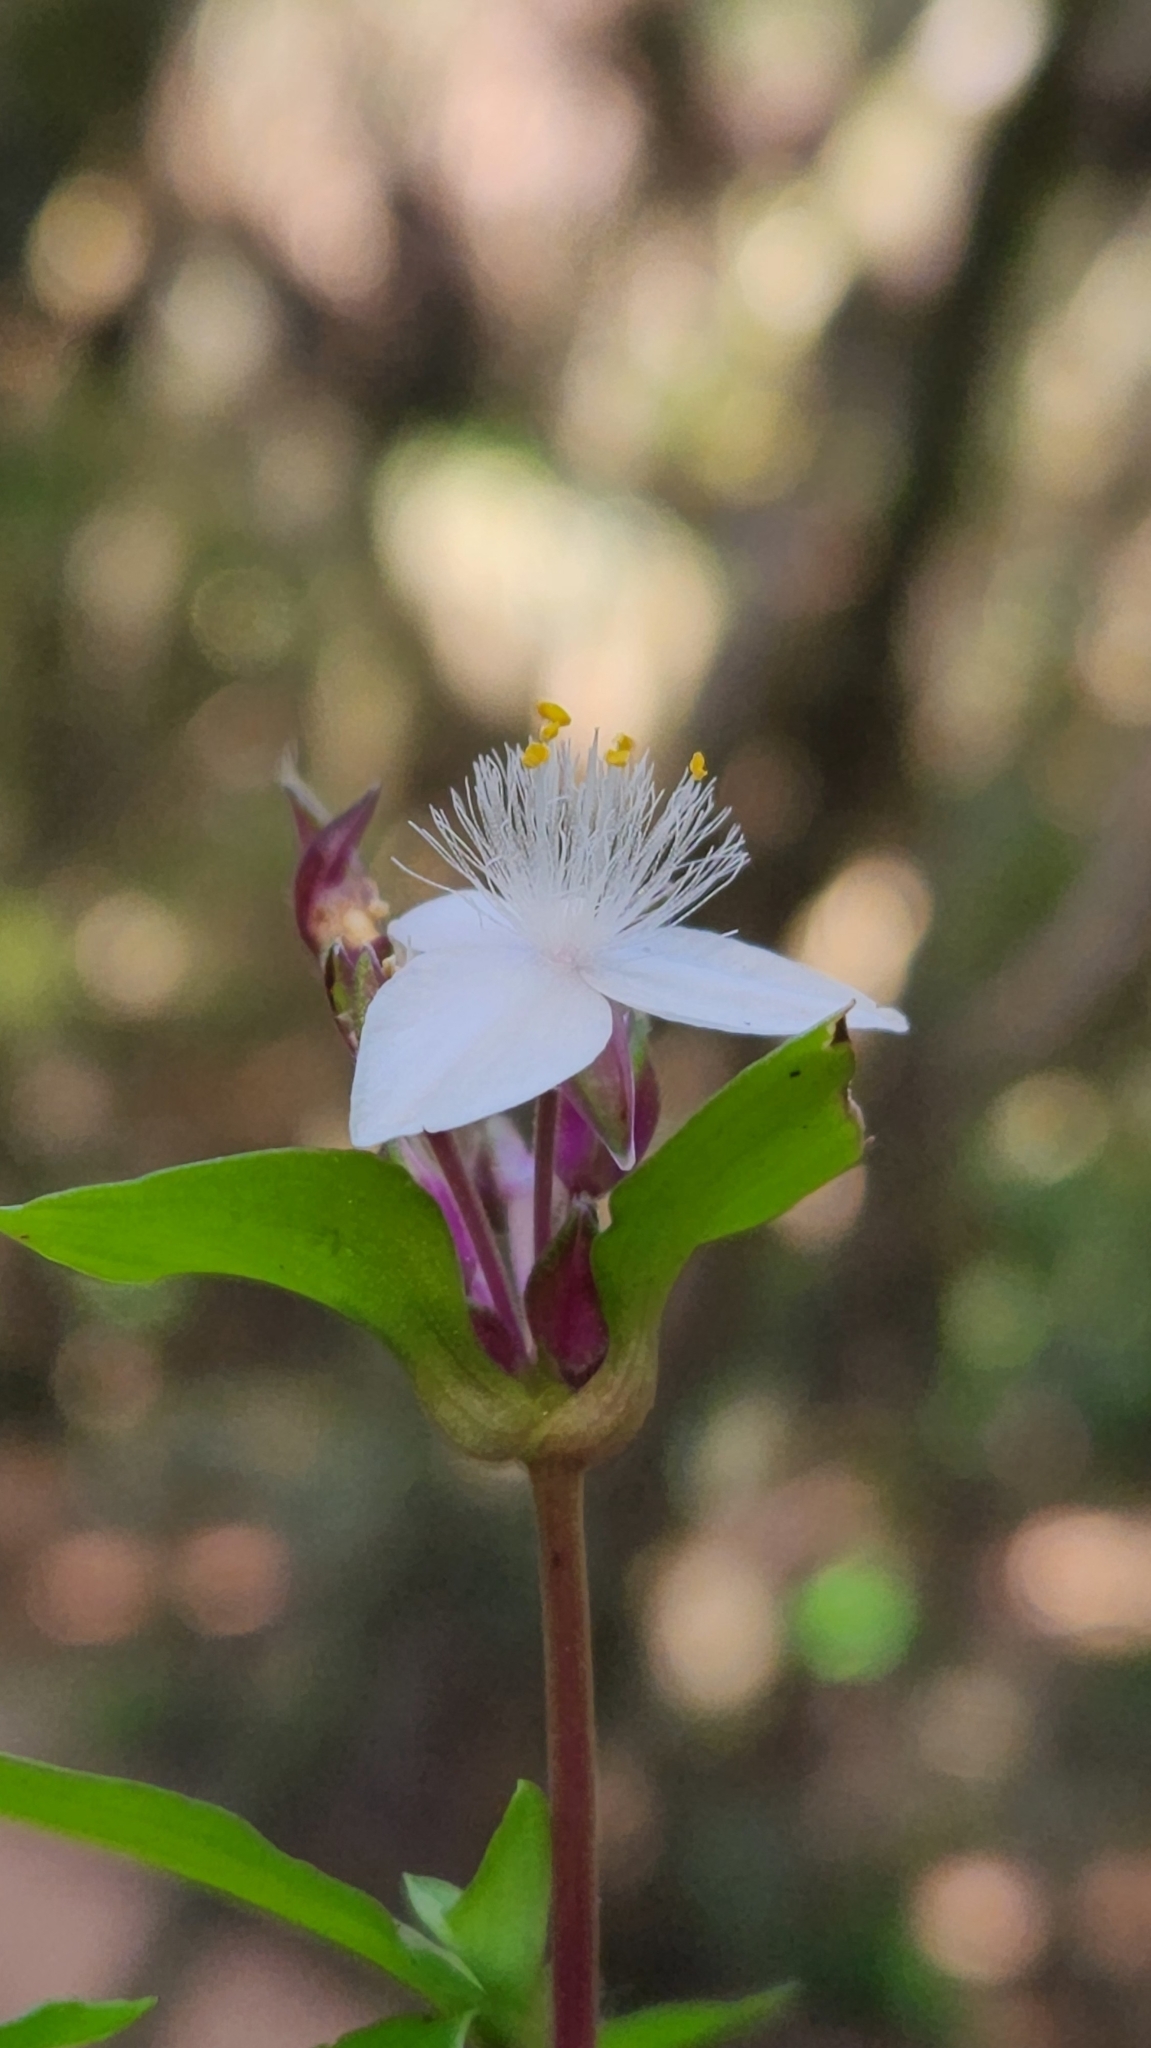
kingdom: Plantae
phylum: Tracheophyta
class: Liliopsida
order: Commelinales
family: Commelinaceae
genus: Tradescantia
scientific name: Tradescantia mundula
